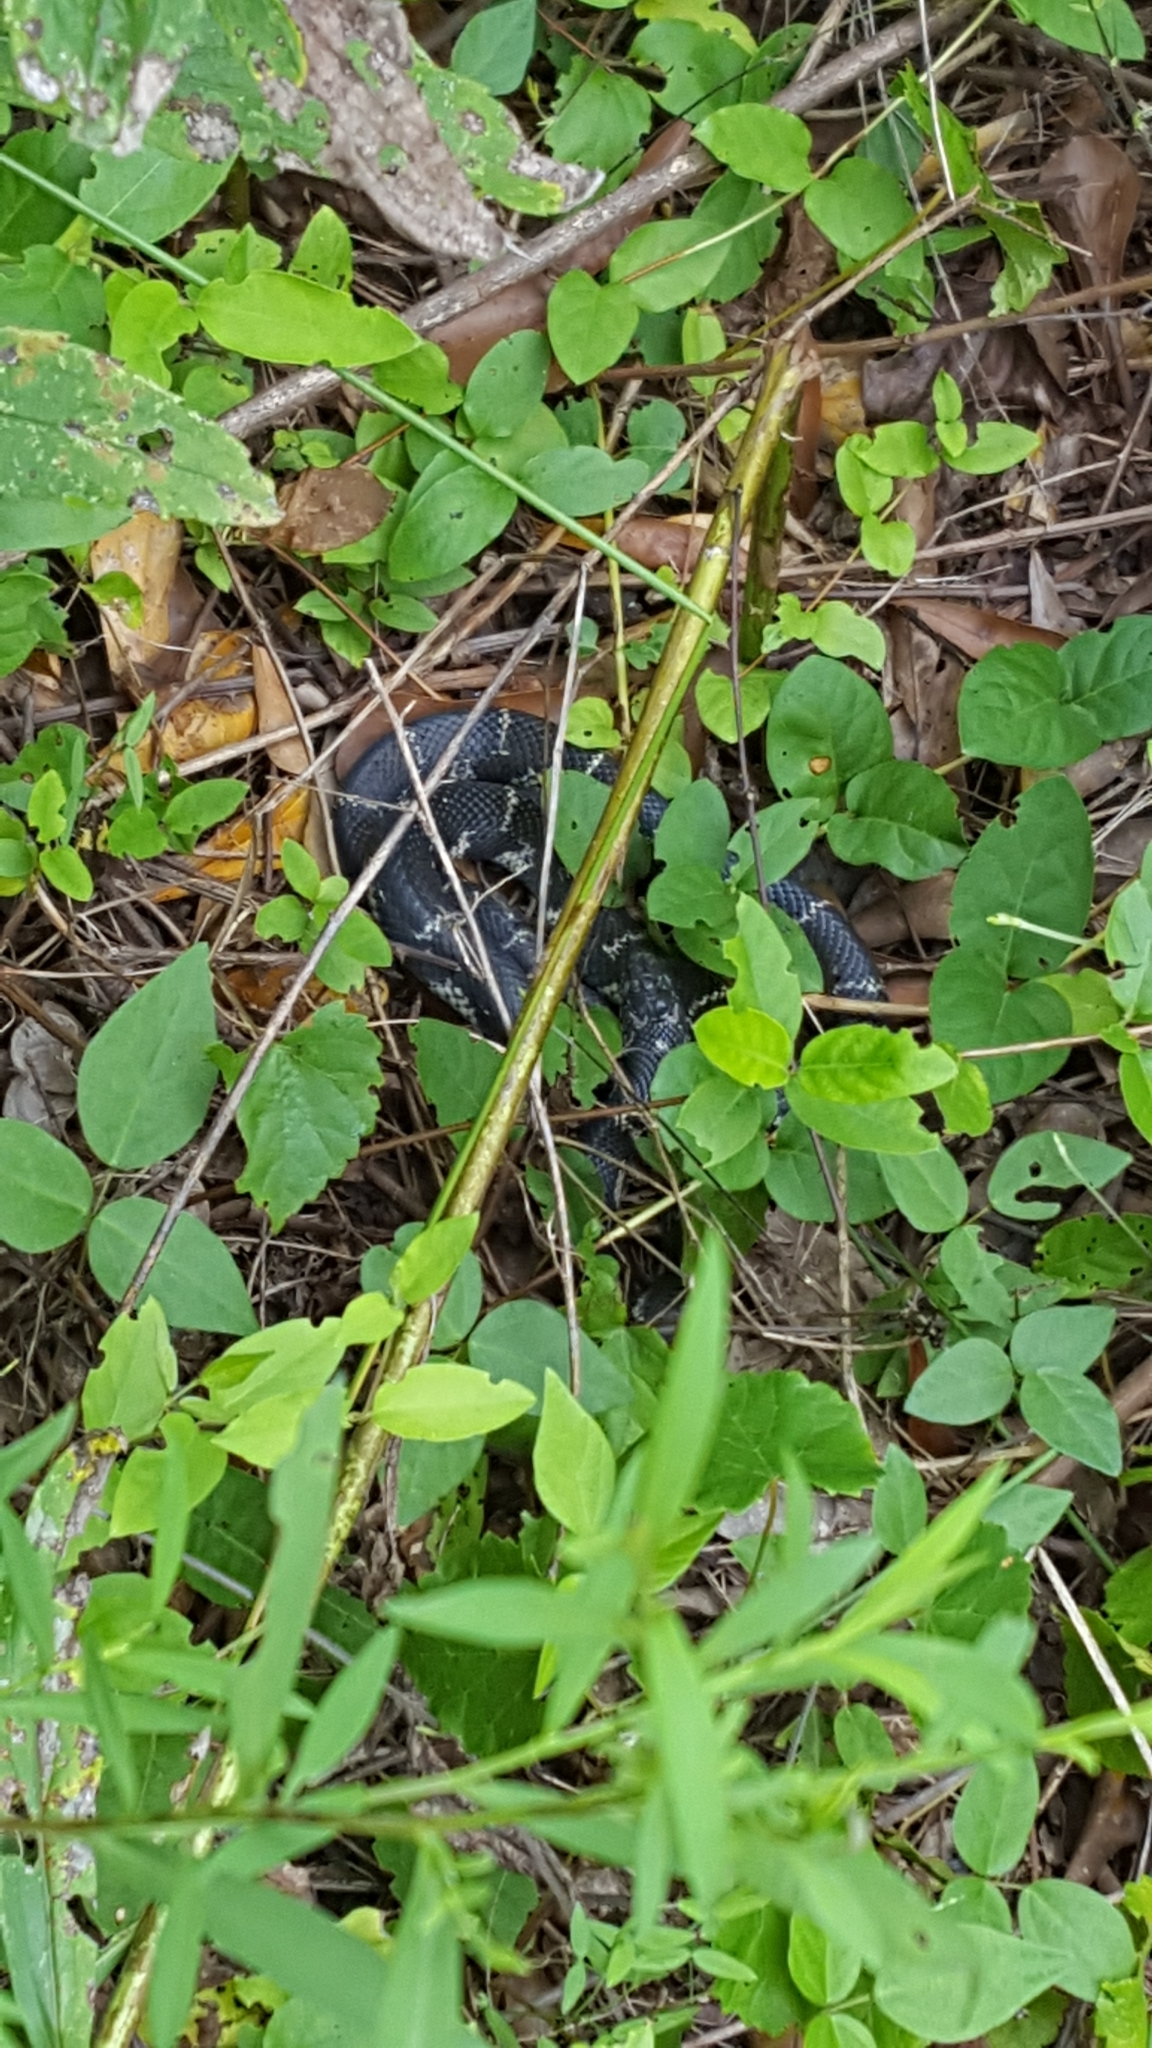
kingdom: Animalia
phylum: Chordata
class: Squamata
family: Colubridae
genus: Lampropeltis
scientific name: Lampropeltis getula
